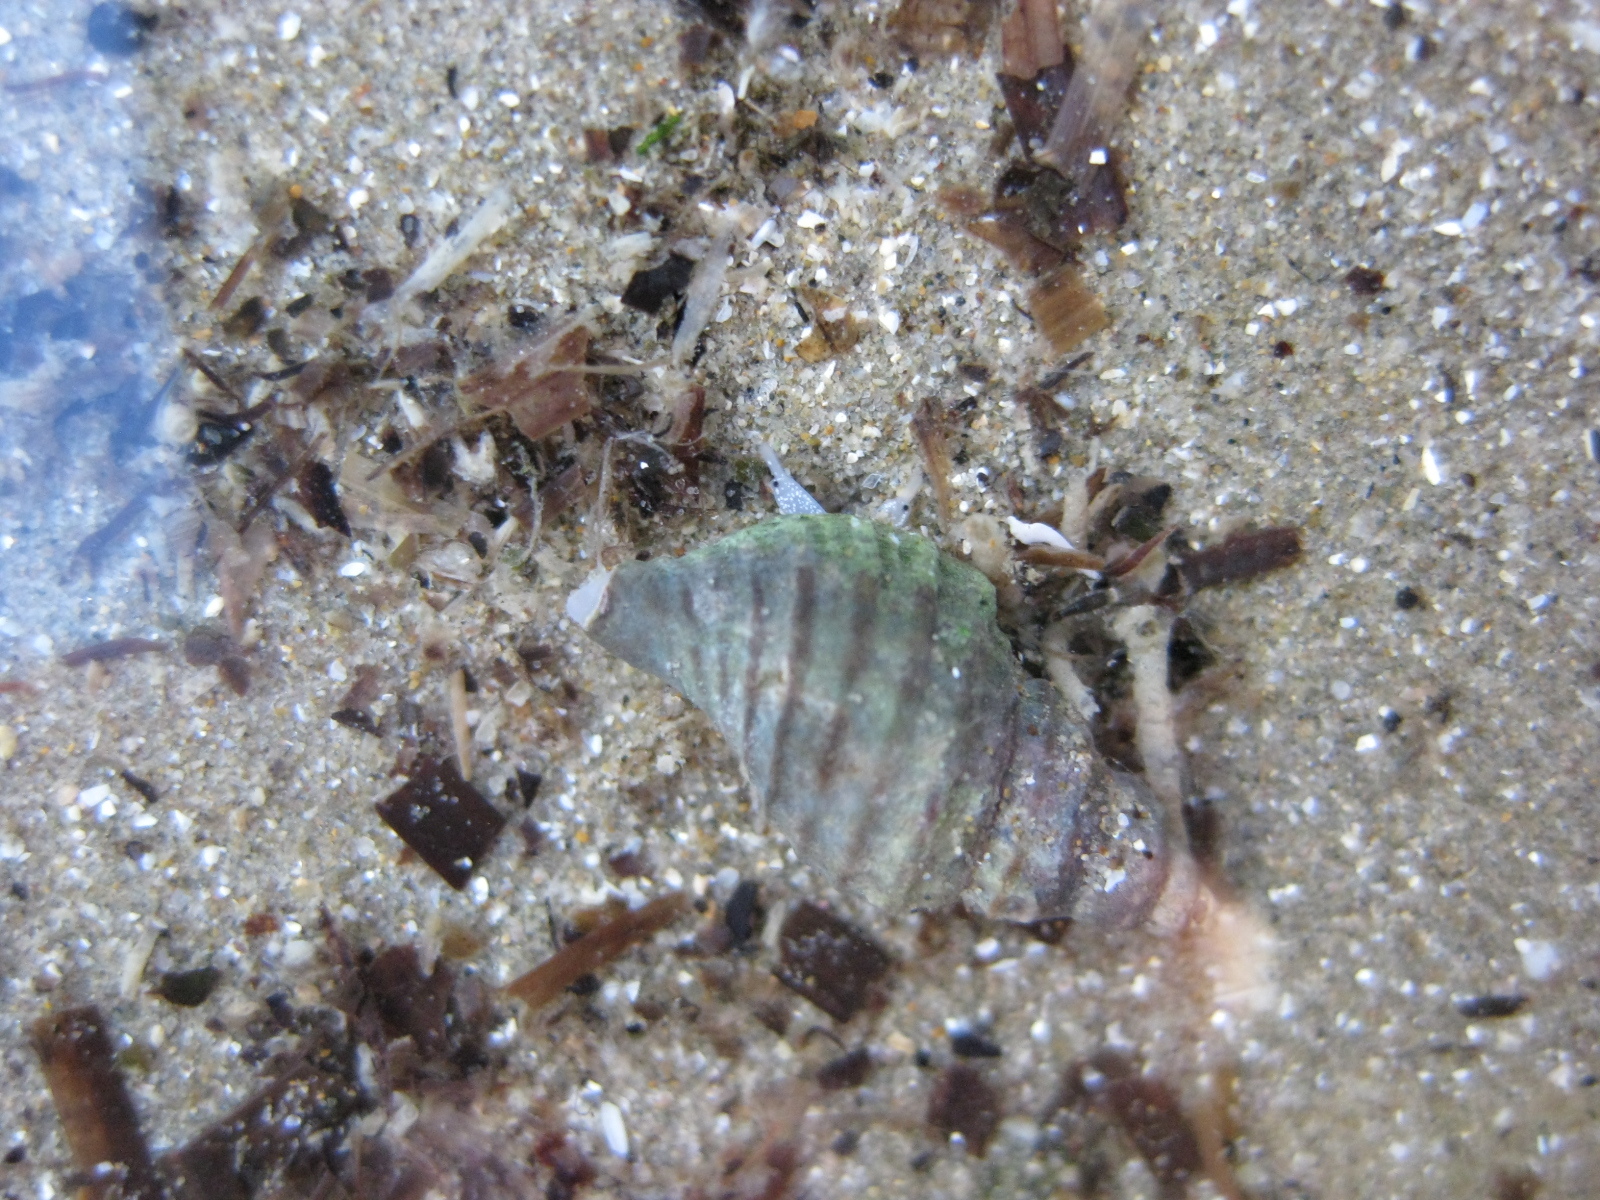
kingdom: Animalia
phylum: Mollusca
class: Gastropoda
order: Neogastropoda
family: Muricidae
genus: Xymene
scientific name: Xymene plebeius
